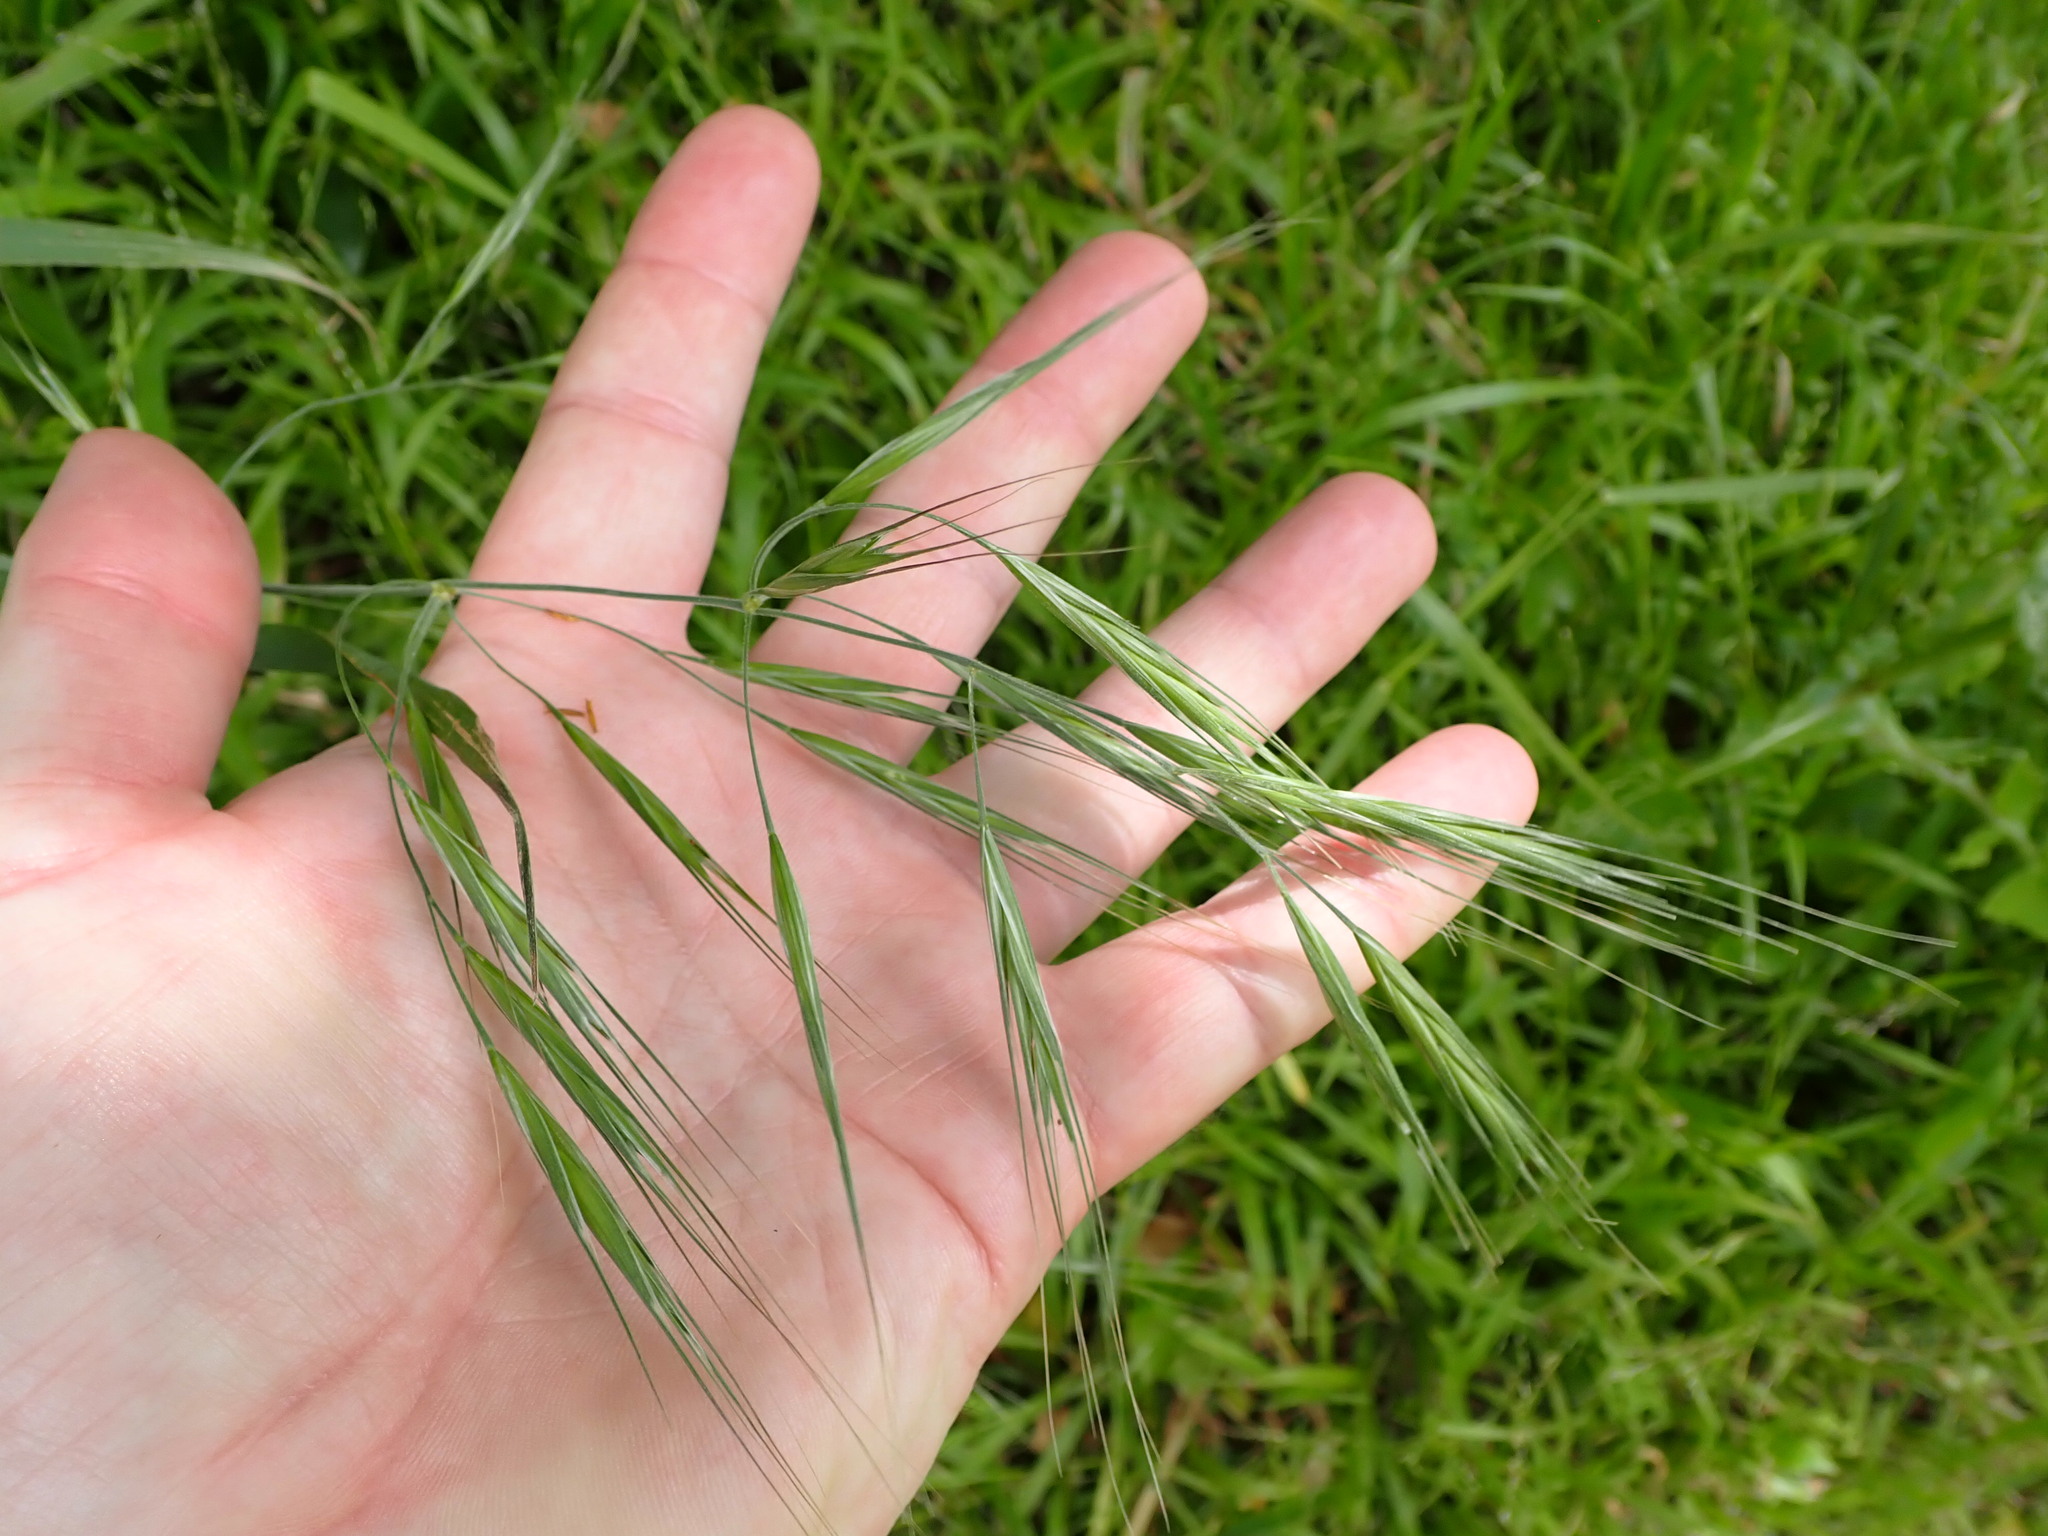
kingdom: Plantae
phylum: Tracheophyta
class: Liliopsida
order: Poales
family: Poaceae
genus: Bromus
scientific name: Bromus diandrus
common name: Ripgut brome
